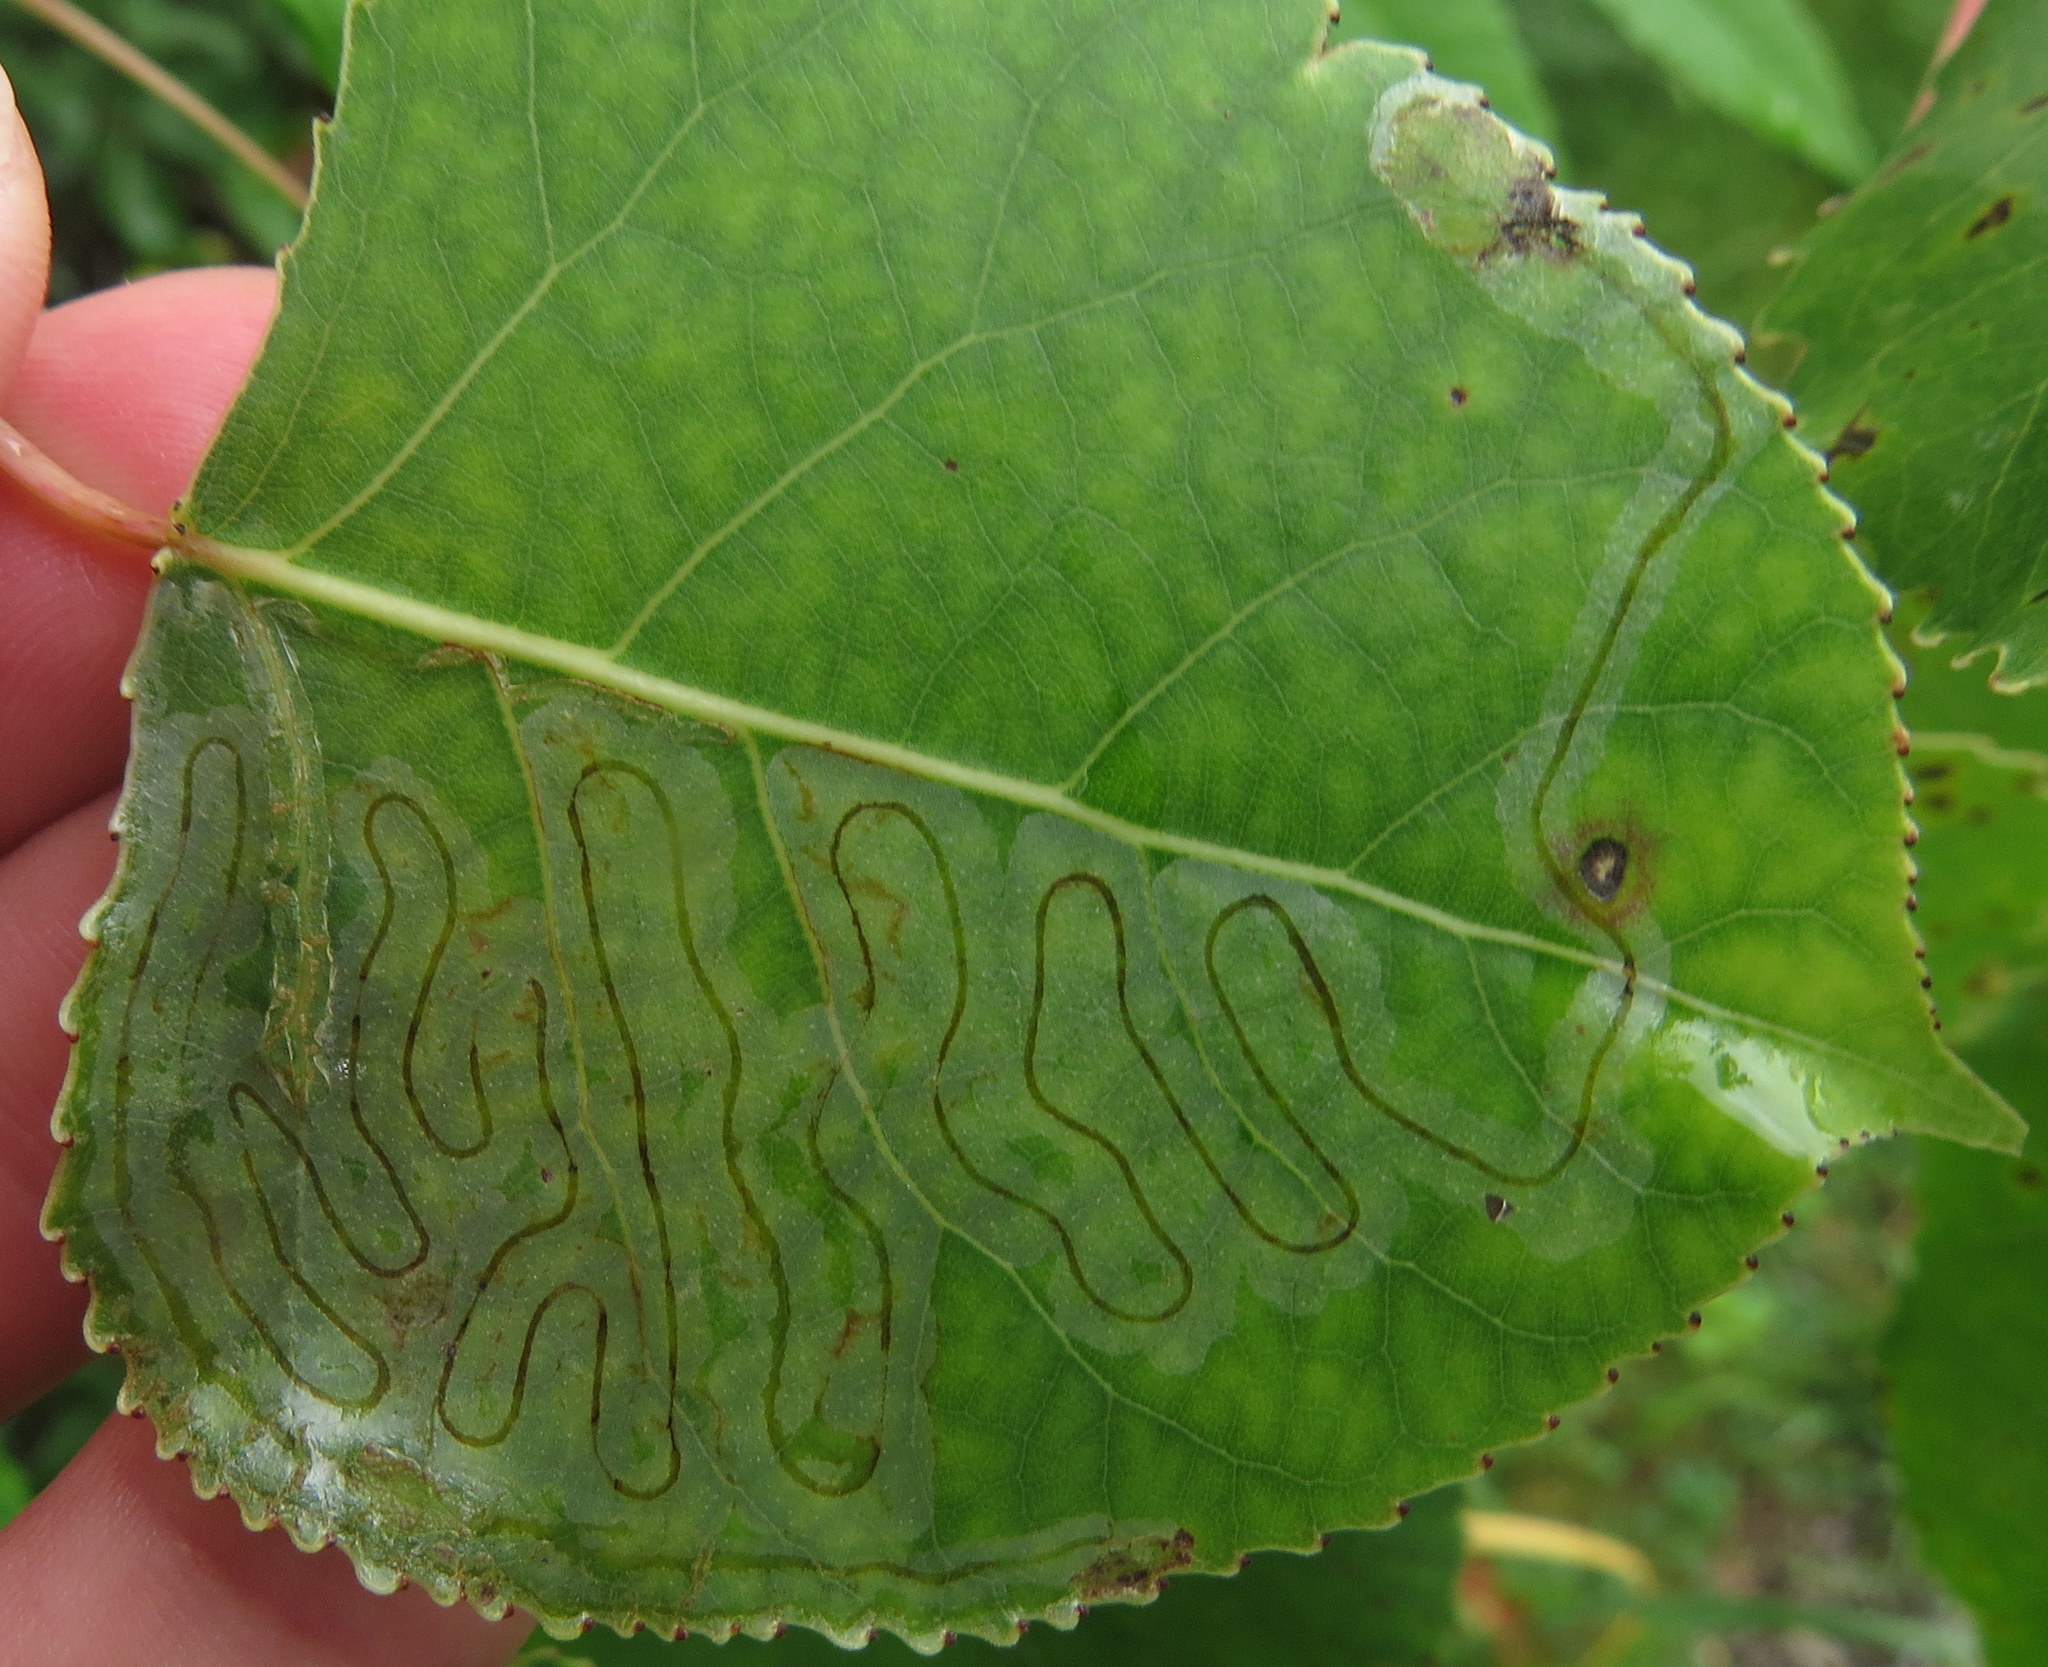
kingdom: Animalia
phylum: Arthropoda
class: Insecta
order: Lepidoptera
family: Gracillariidae
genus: Phyllocnistis
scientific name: Phyllocnistis populiella
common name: Aspen serpentine leafminer moth
